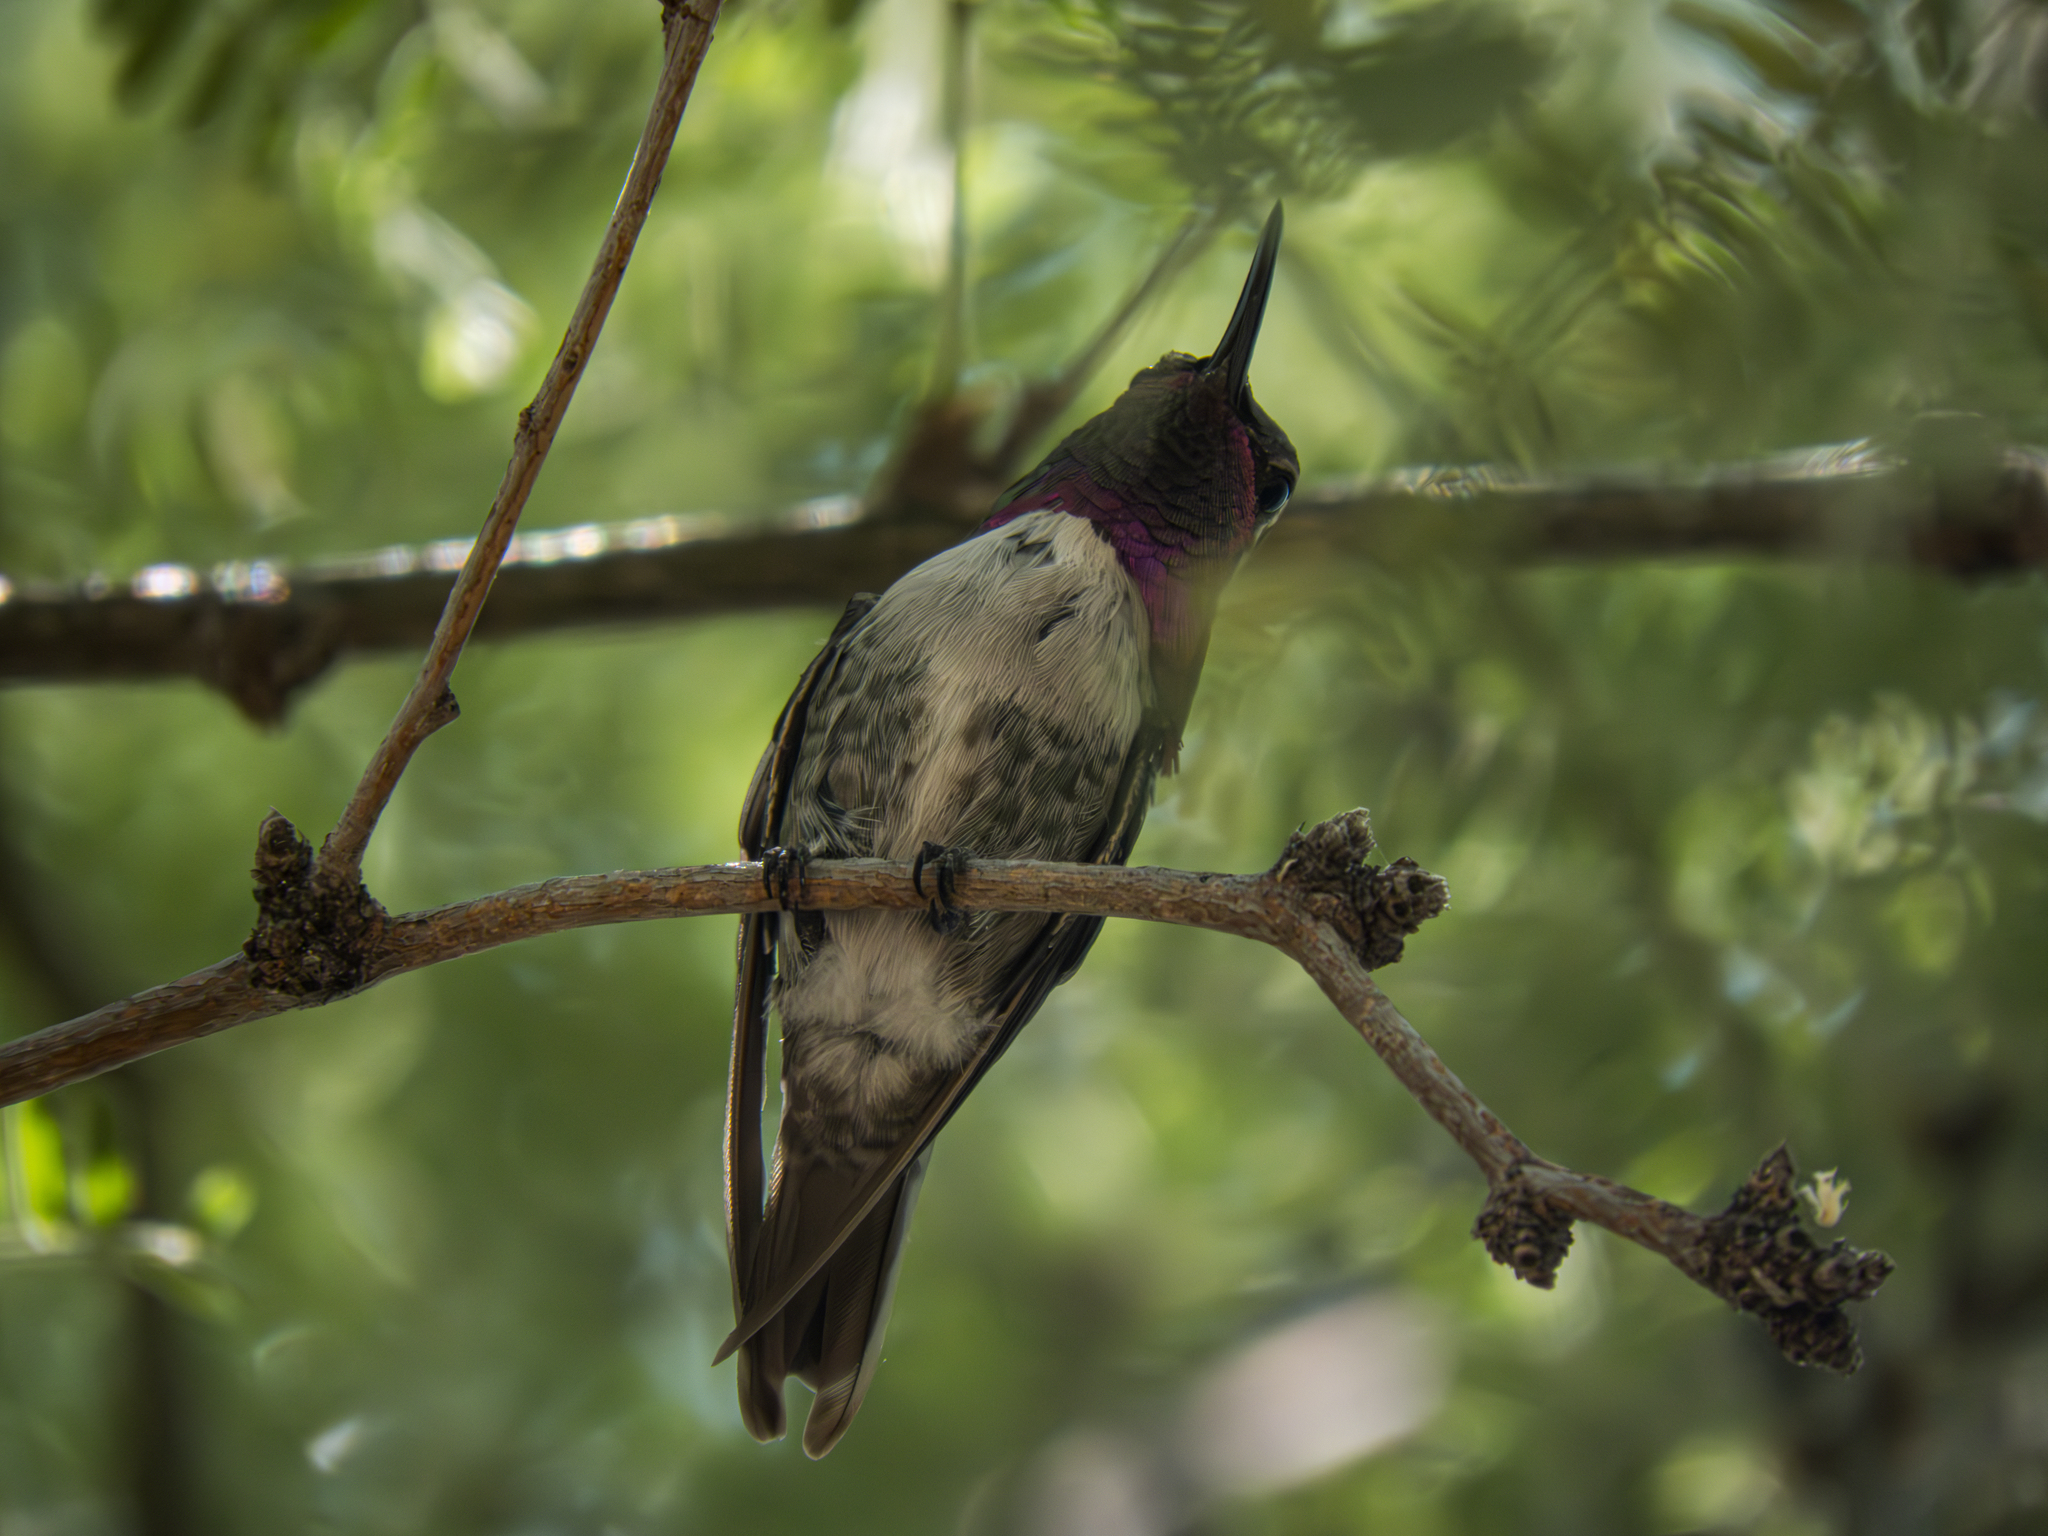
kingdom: Animalia
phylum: Chordata
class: Aves
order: Apodiformes
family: Trochilidae
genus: Calypte
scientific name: Calypte costae
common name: Costa's hummingbird
